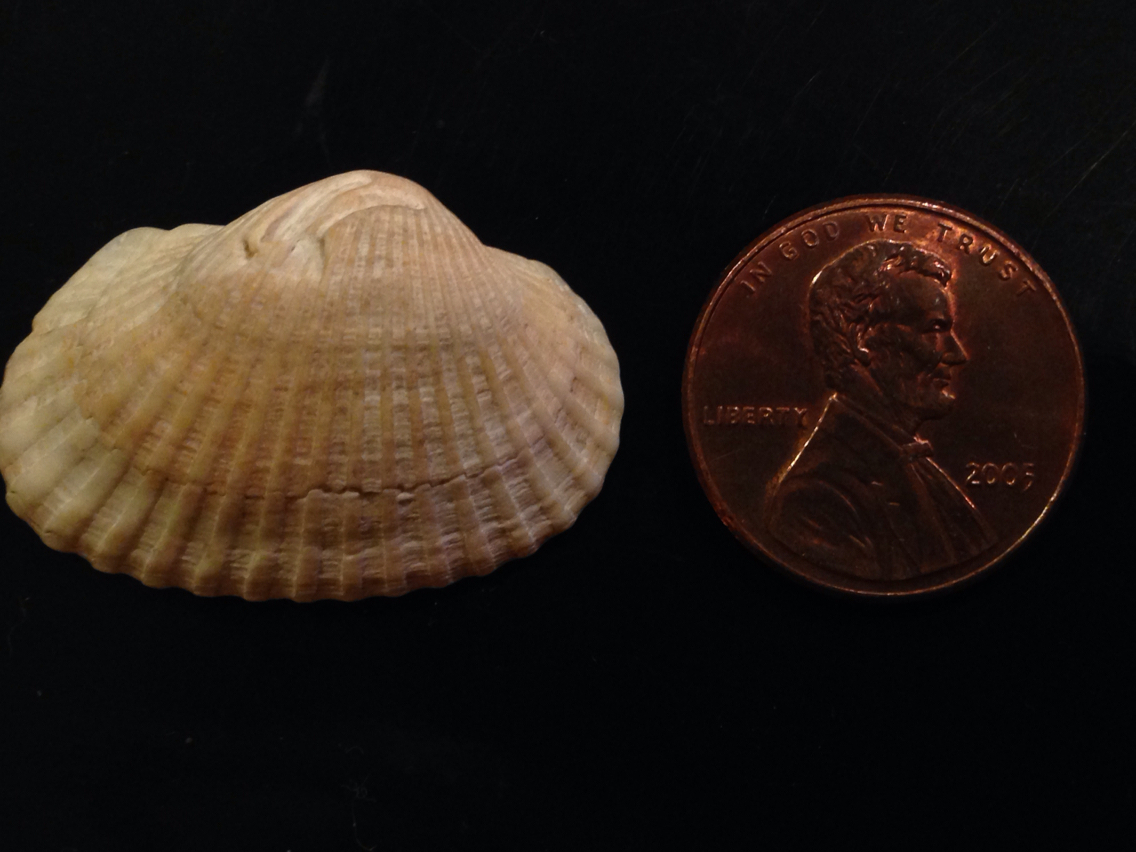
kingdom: Animalia
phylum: Mollusca
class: Bivalvia
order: Arcida
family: Arcidae
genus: Anadara
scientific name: Anadara transversa
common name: Transverse ark
